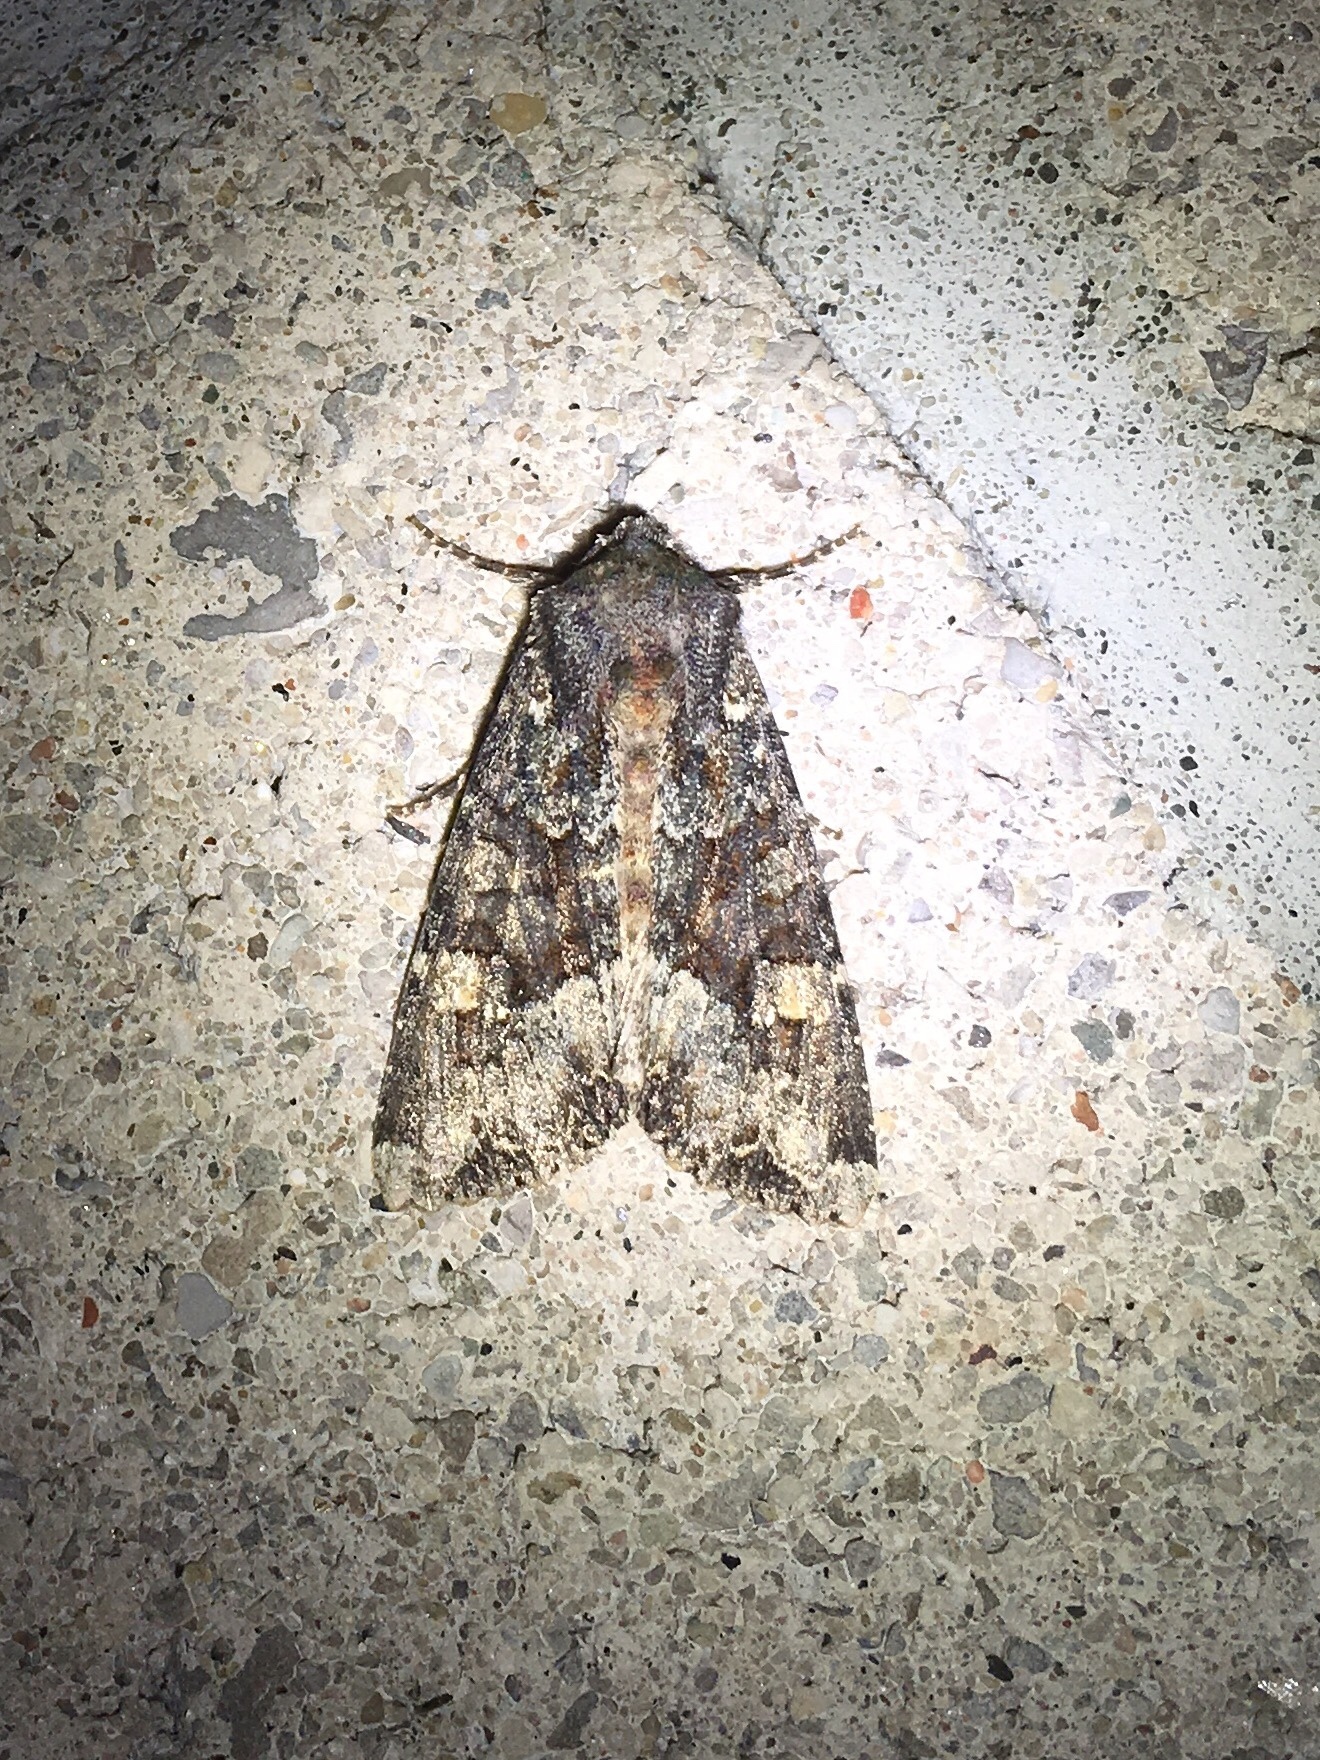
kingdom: Animalia
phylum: Arthropoda
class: Insecta
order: Lepidoptera
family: Noctuidae
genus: Apamea
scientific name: Apamea amputatrix
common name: Yellow-headed cutworm moth
